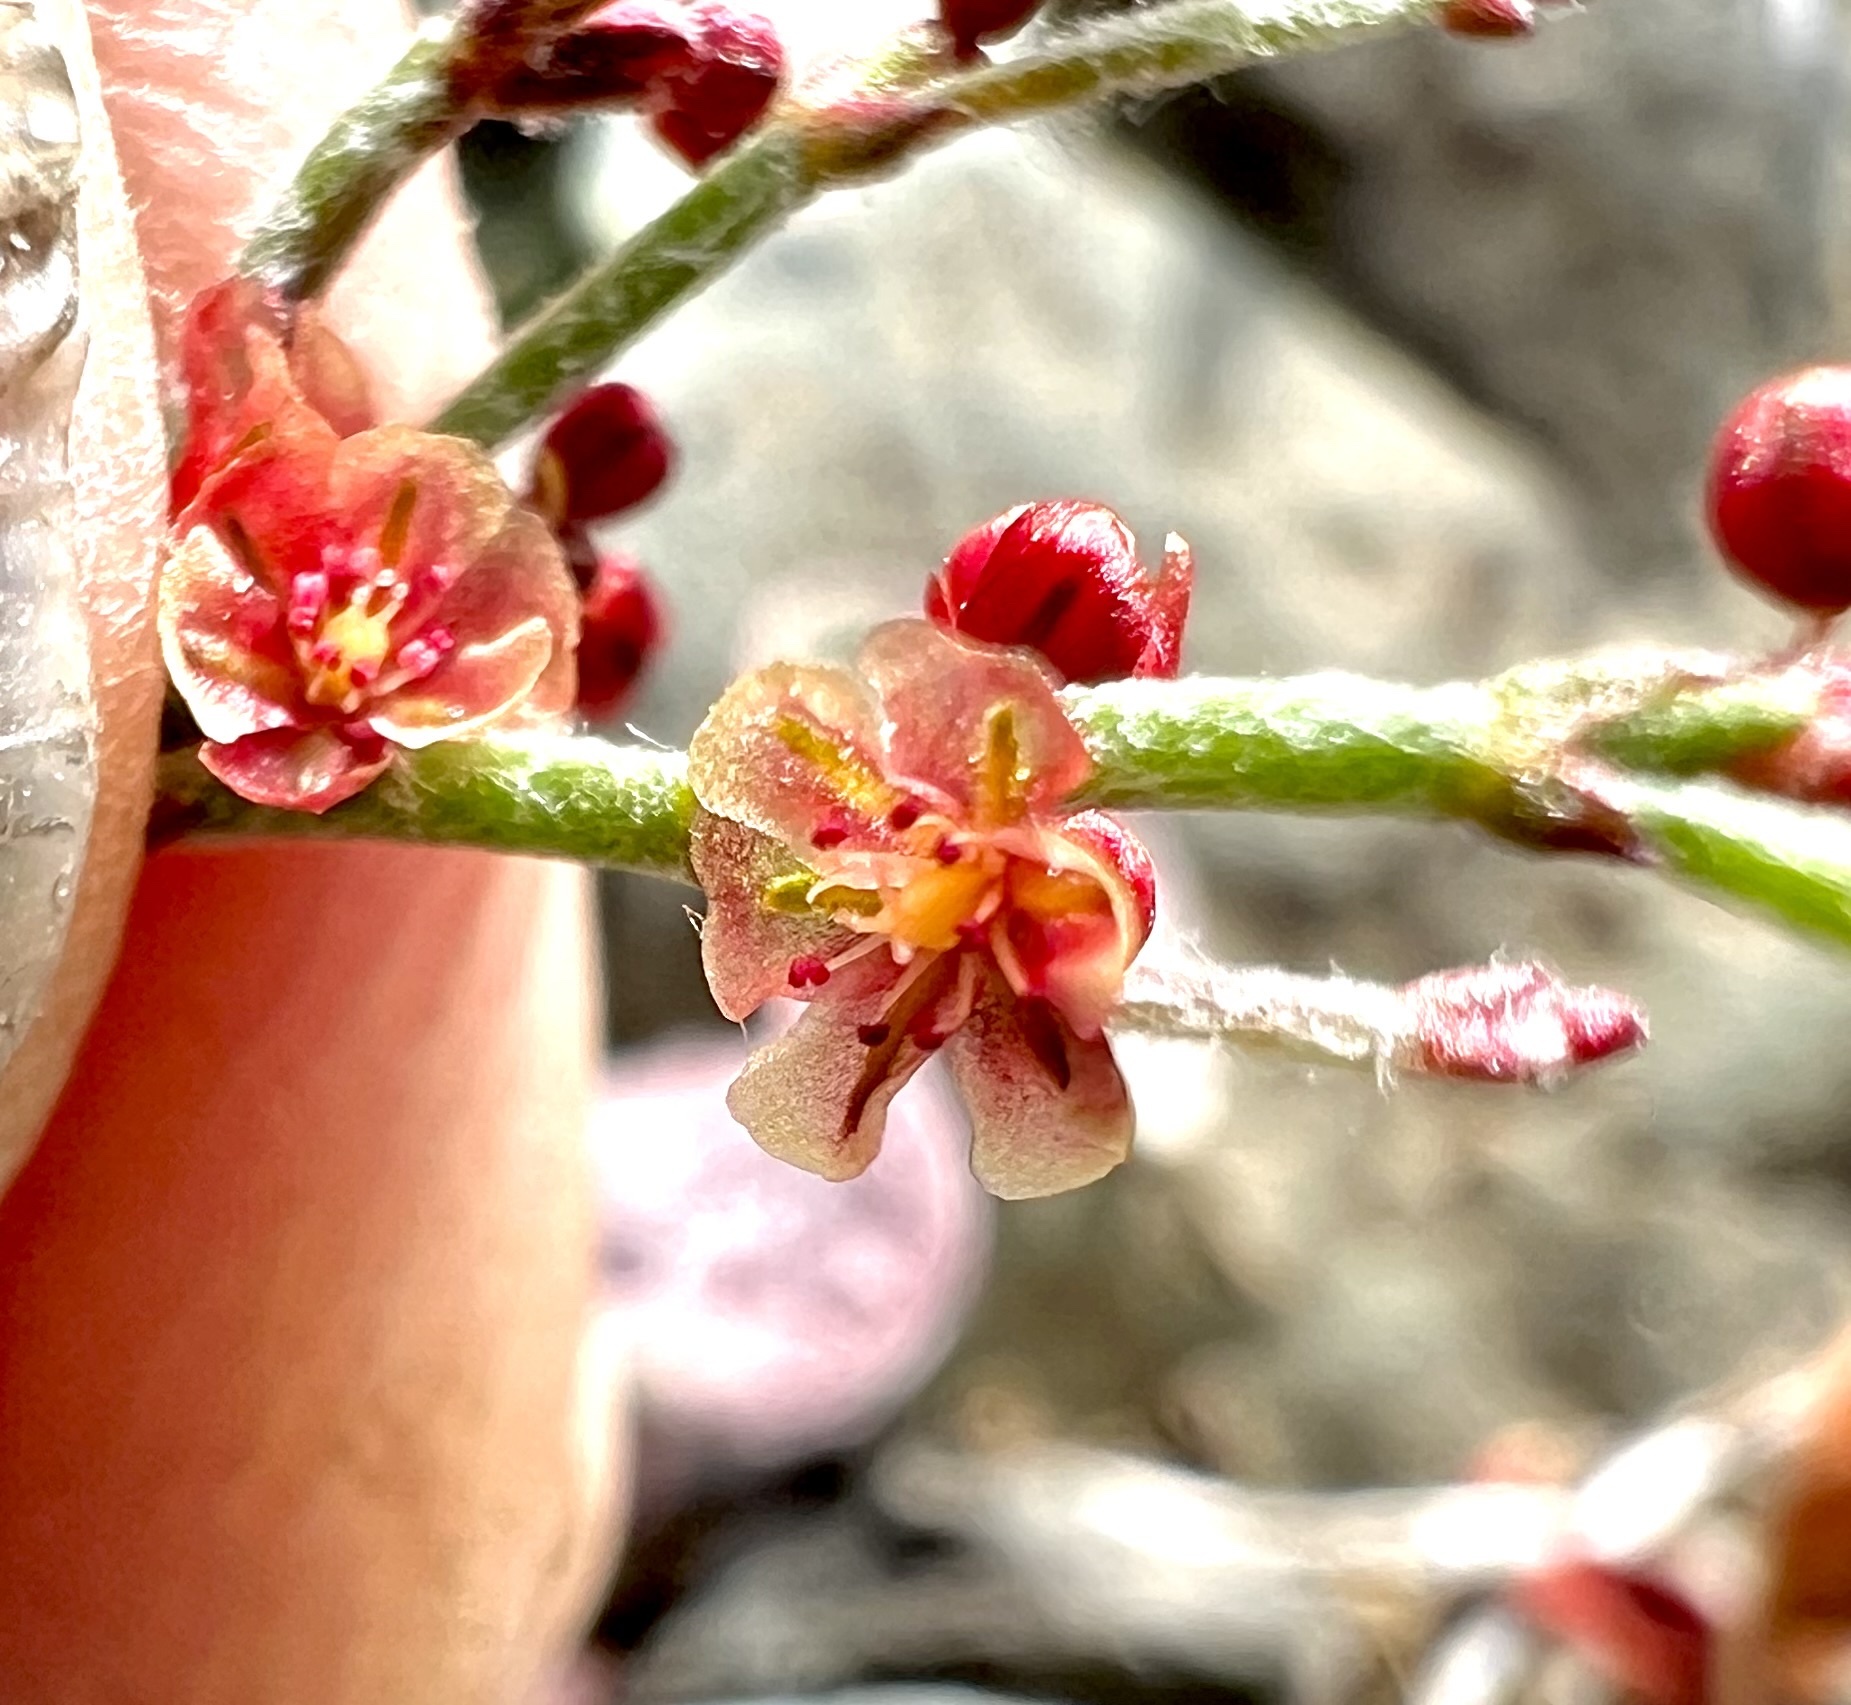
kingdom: Plantae
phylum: Tracheophyta
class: Magnoliopsida
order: Caryophyllales
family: Polygonaceae
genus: Eriogonum
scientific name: Eriogonum nidularium
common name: Bird's-nest wild buckwheat
